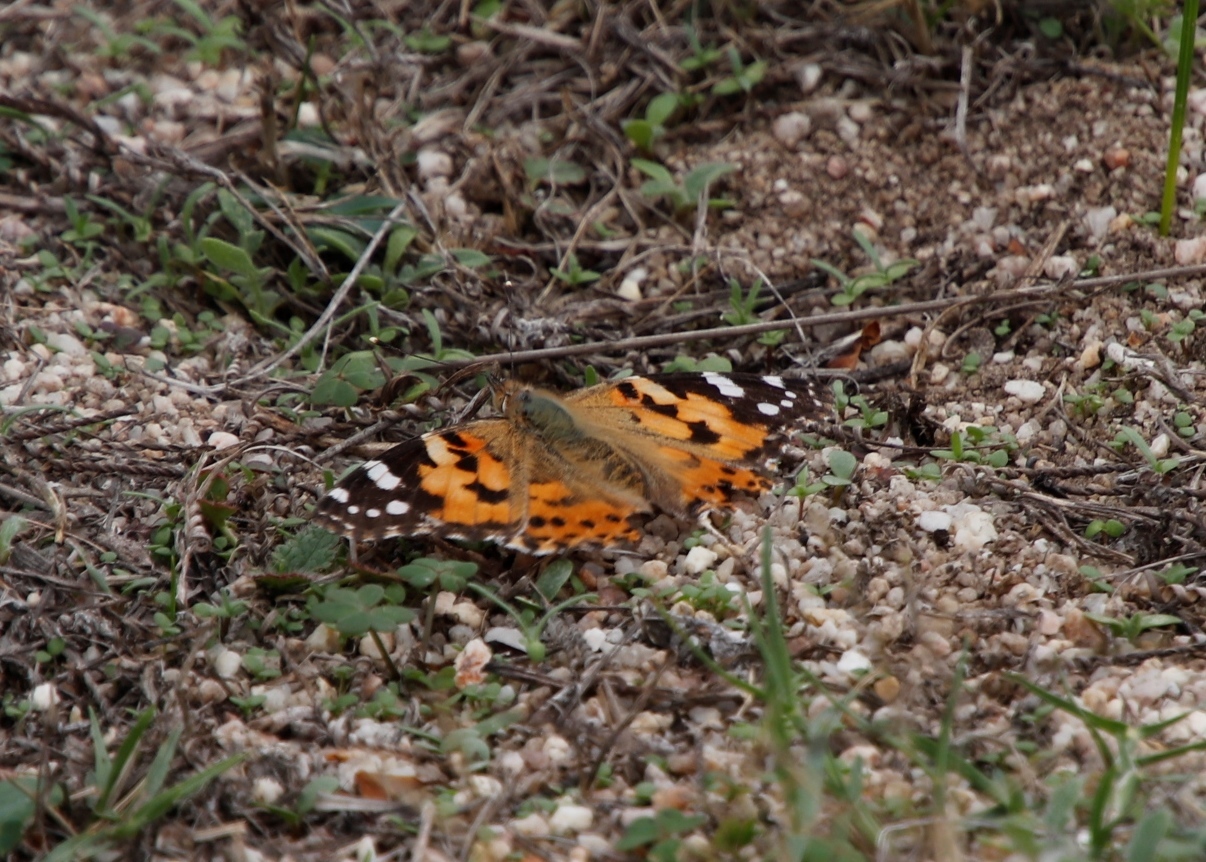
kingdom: Animalia
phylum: Arthropoda
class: Insecta
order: Lepidoptera
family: Nymphalidae
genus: Vanessa
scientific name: Vanessa cardui
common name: Painted lady
